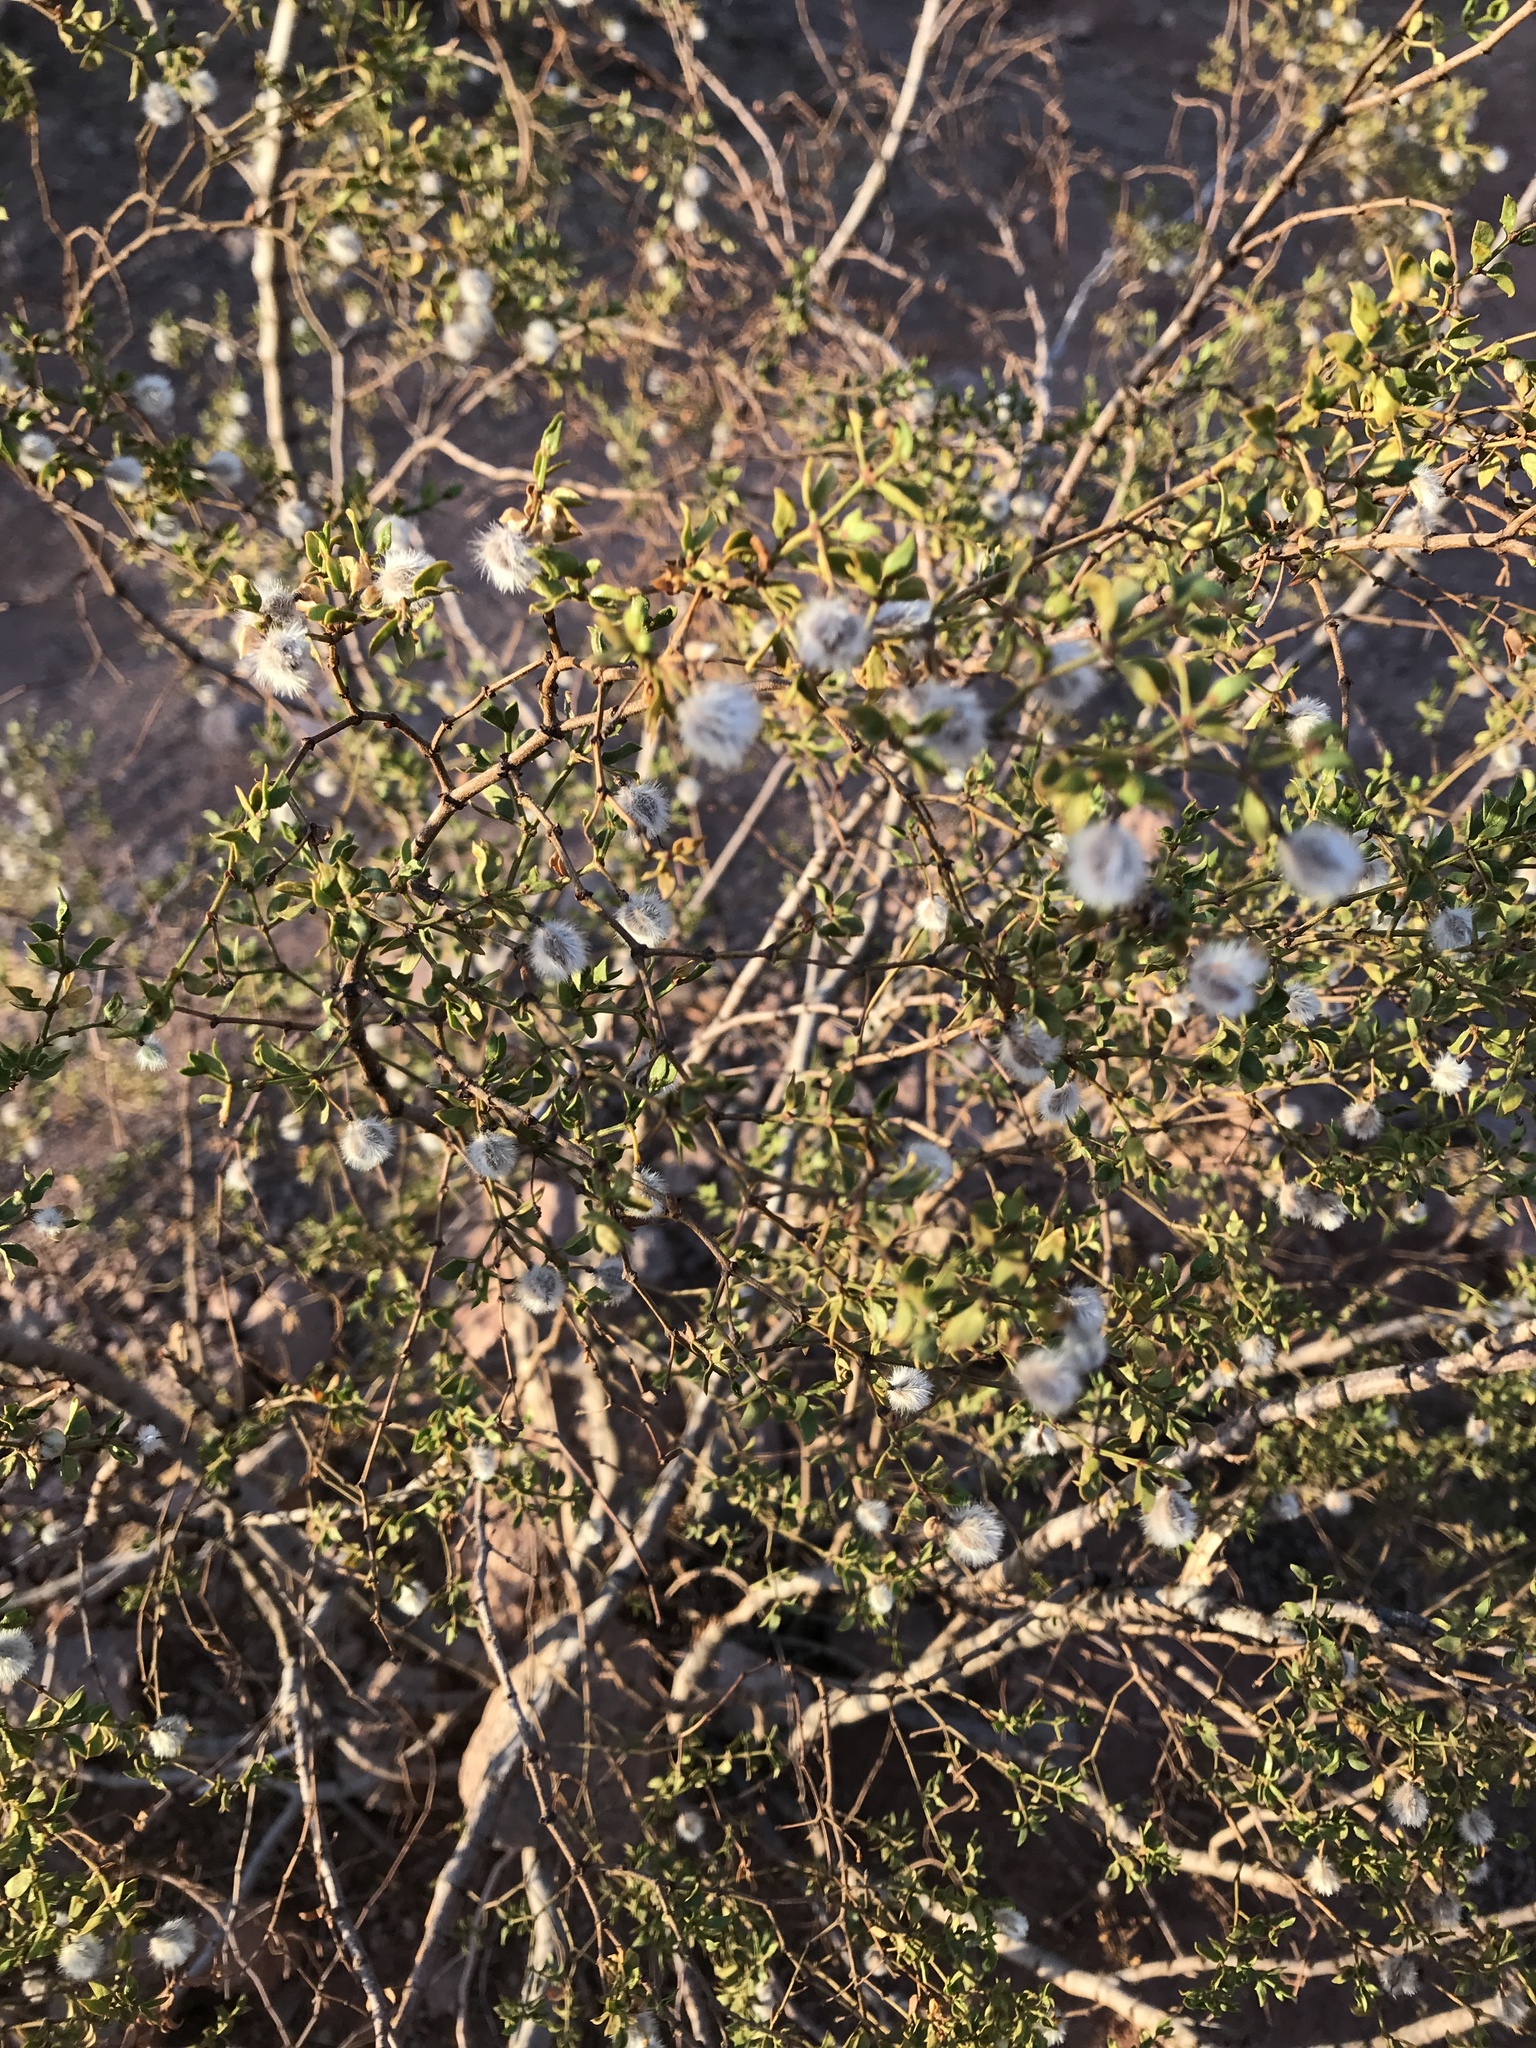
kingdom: Plantae
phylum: Tracheophyta
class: Magnoliopsida
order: Zygophyllales
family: Zygophyllaceae
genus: Larrea
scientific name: Larrea tridentata
